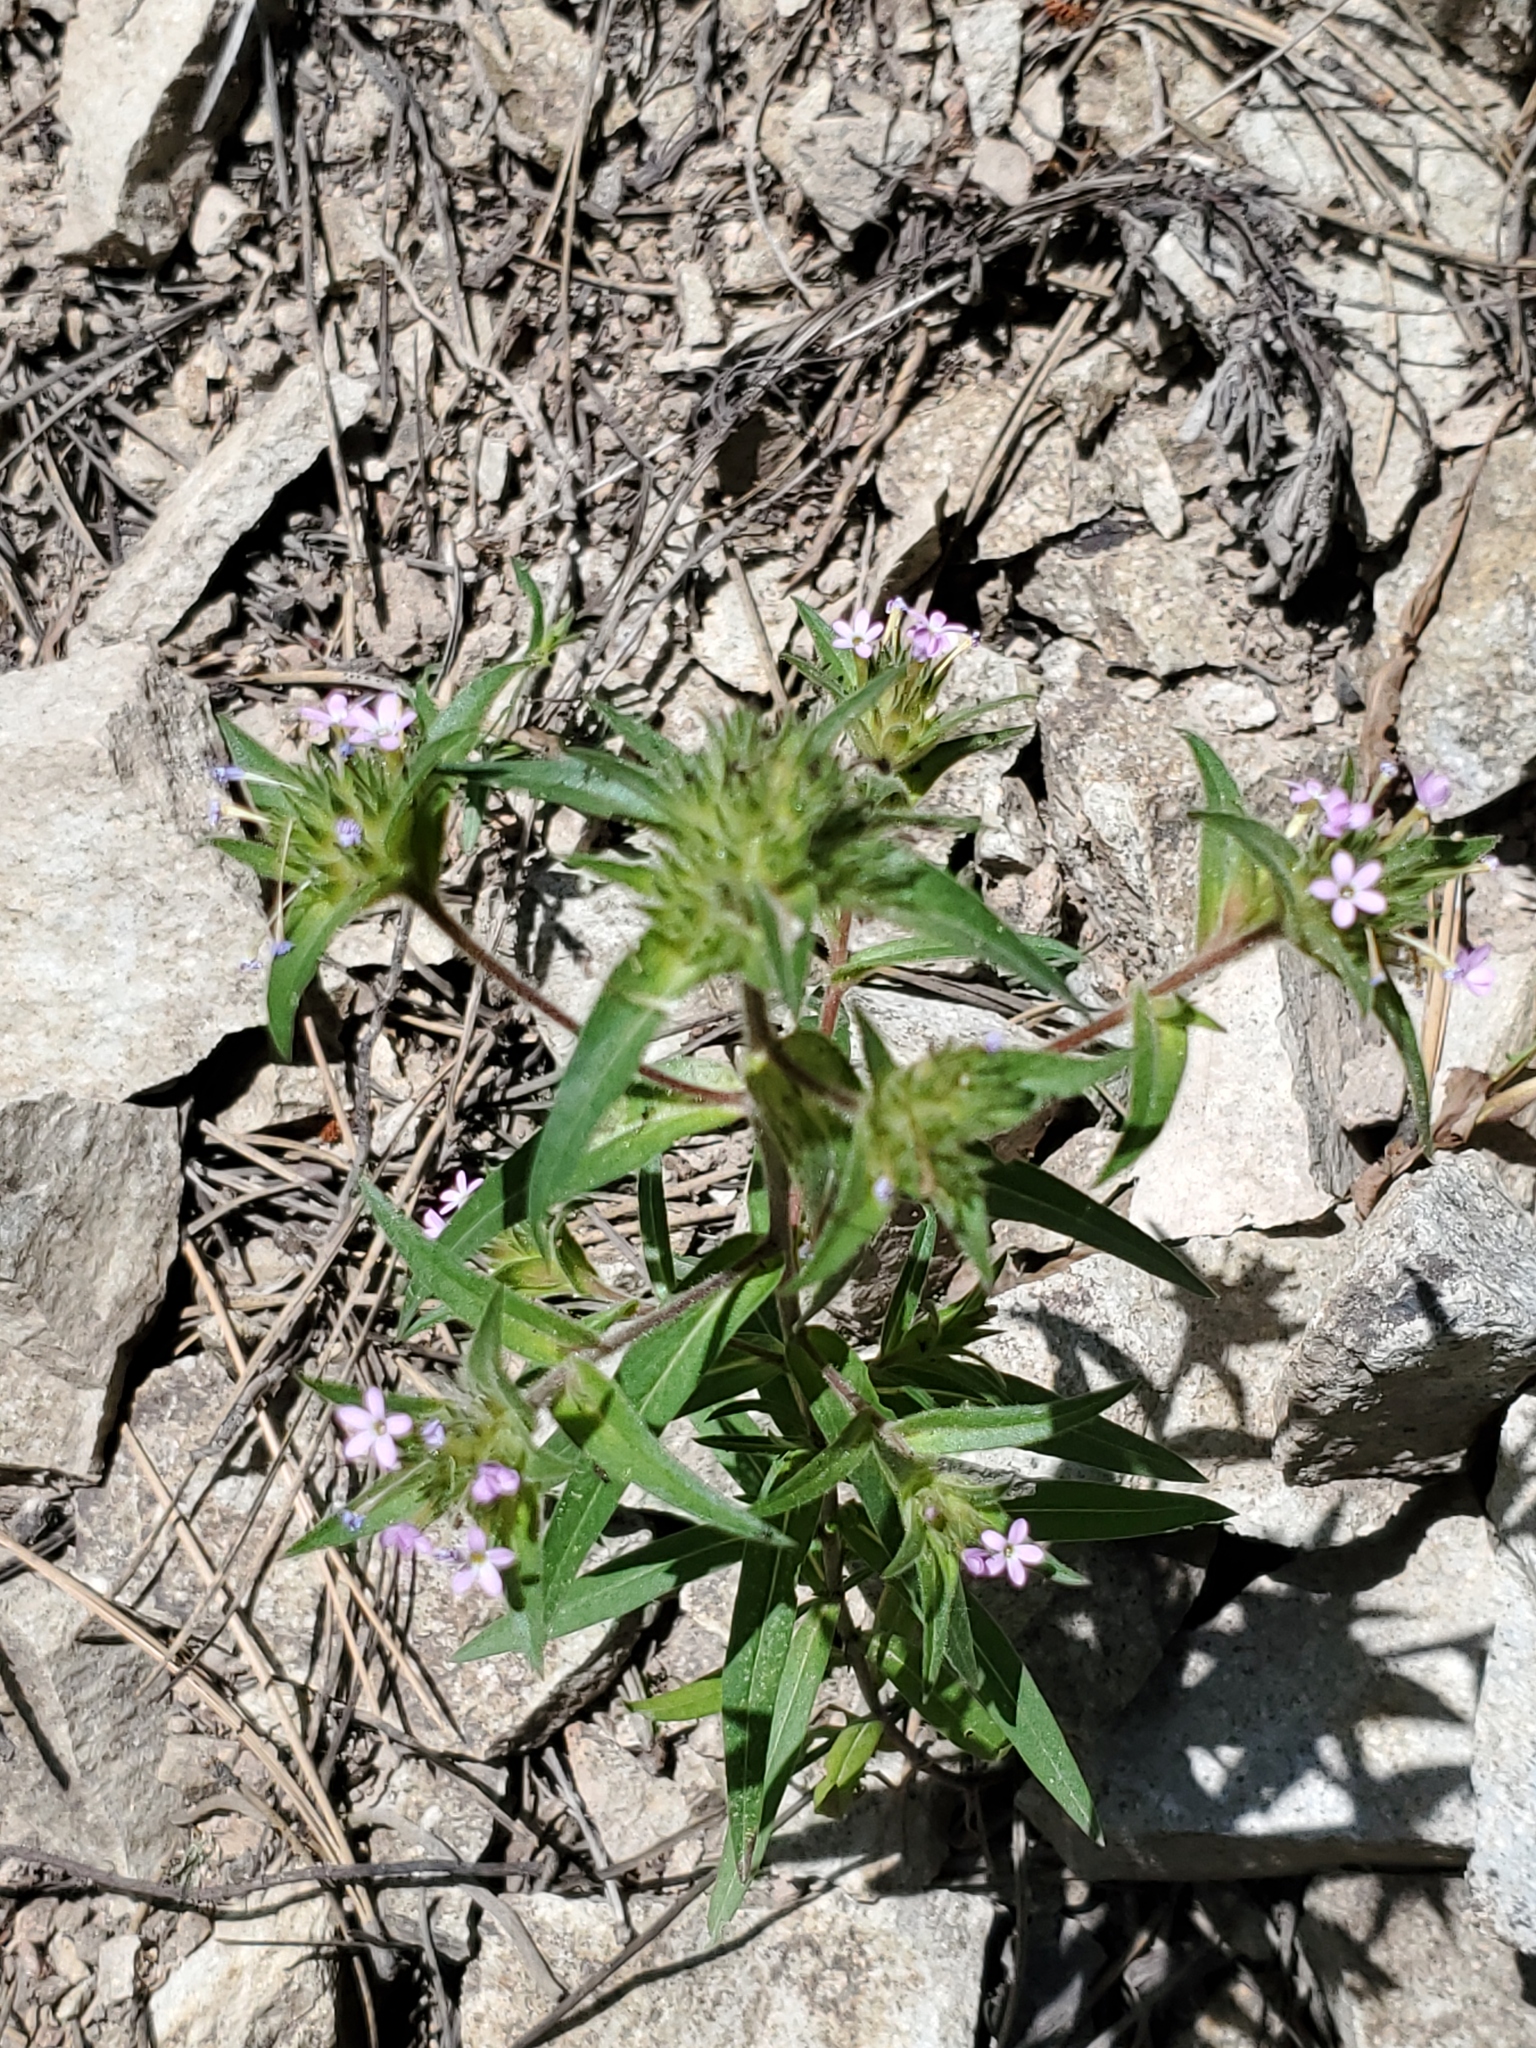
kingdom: Plantae
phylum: Tracheophyta
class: Magnoliopsida
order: Ericales
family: Polemoniaceae
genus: Collomia
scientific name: Collomia linearis
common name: Tiny trumpet
